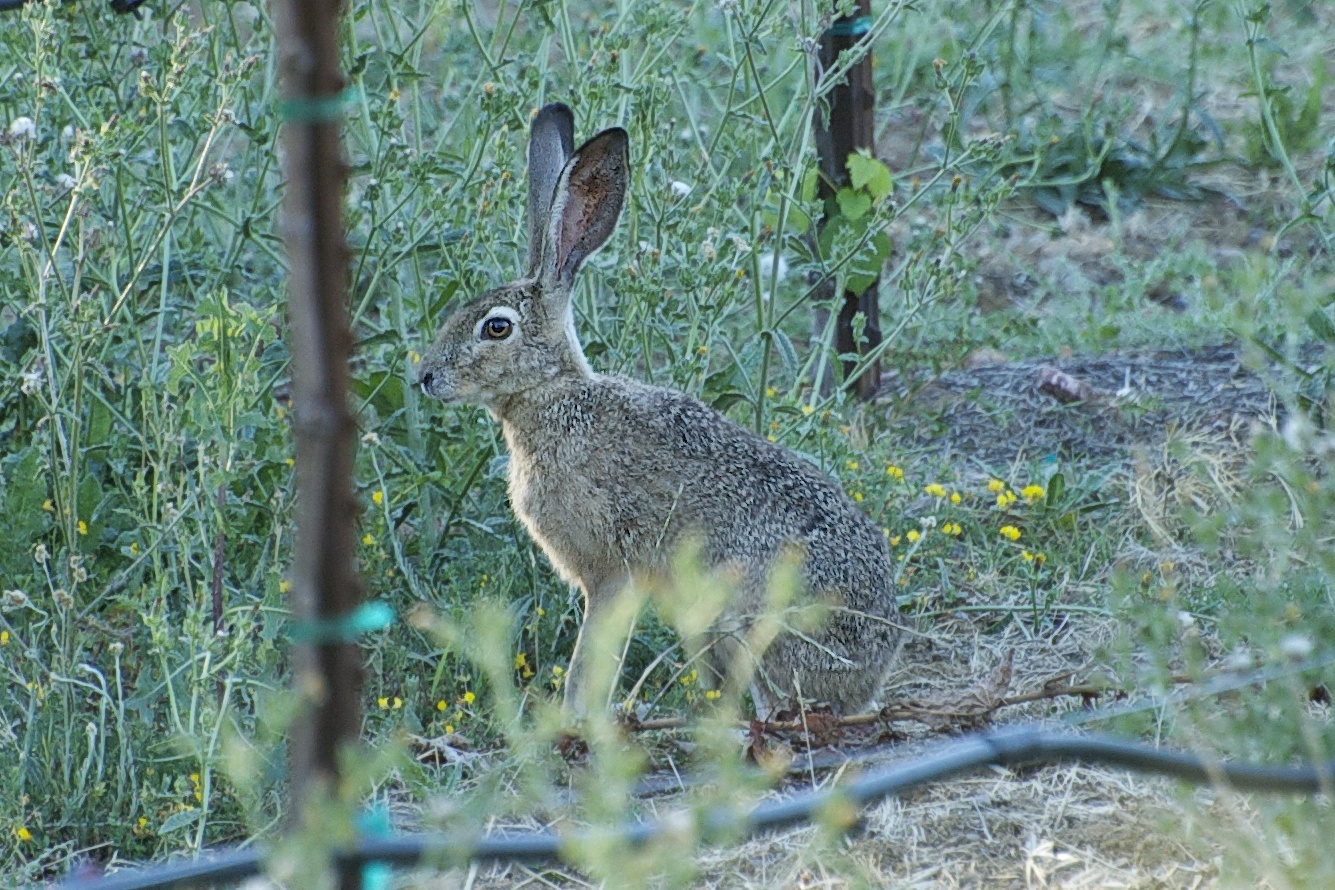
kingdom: Animalia
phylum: Chordata
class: Mammalia
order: Lagomorpha
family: Leporidae
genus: Lepus
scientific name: Lepus californicus
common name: Black-tailed jackrabbit
